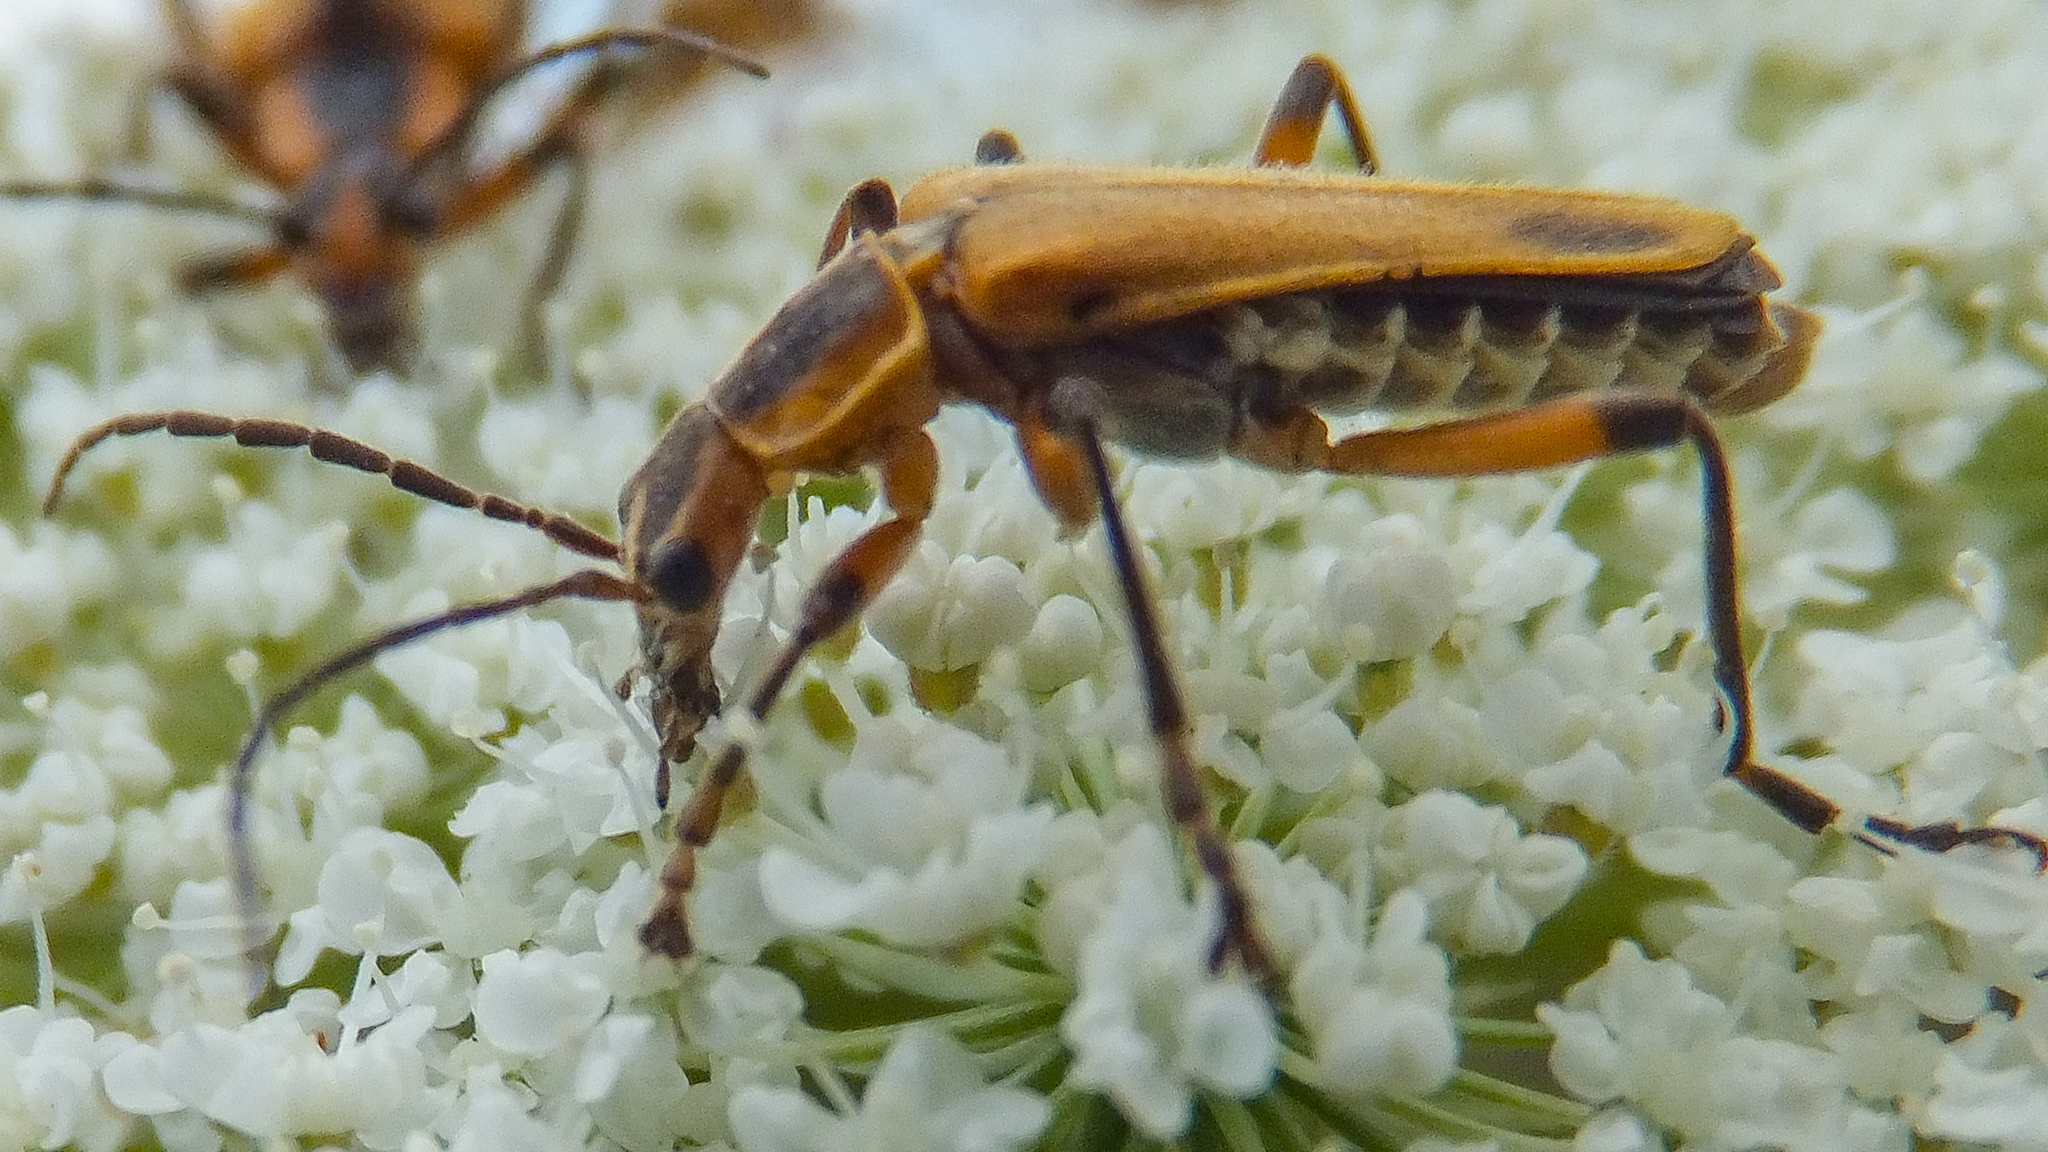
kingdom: Animalia
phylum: Arthropoda
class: Insecta
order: Coleoptera
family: Cantharidae
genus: Chauliognathus
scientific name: Chauliognathus marginatus
